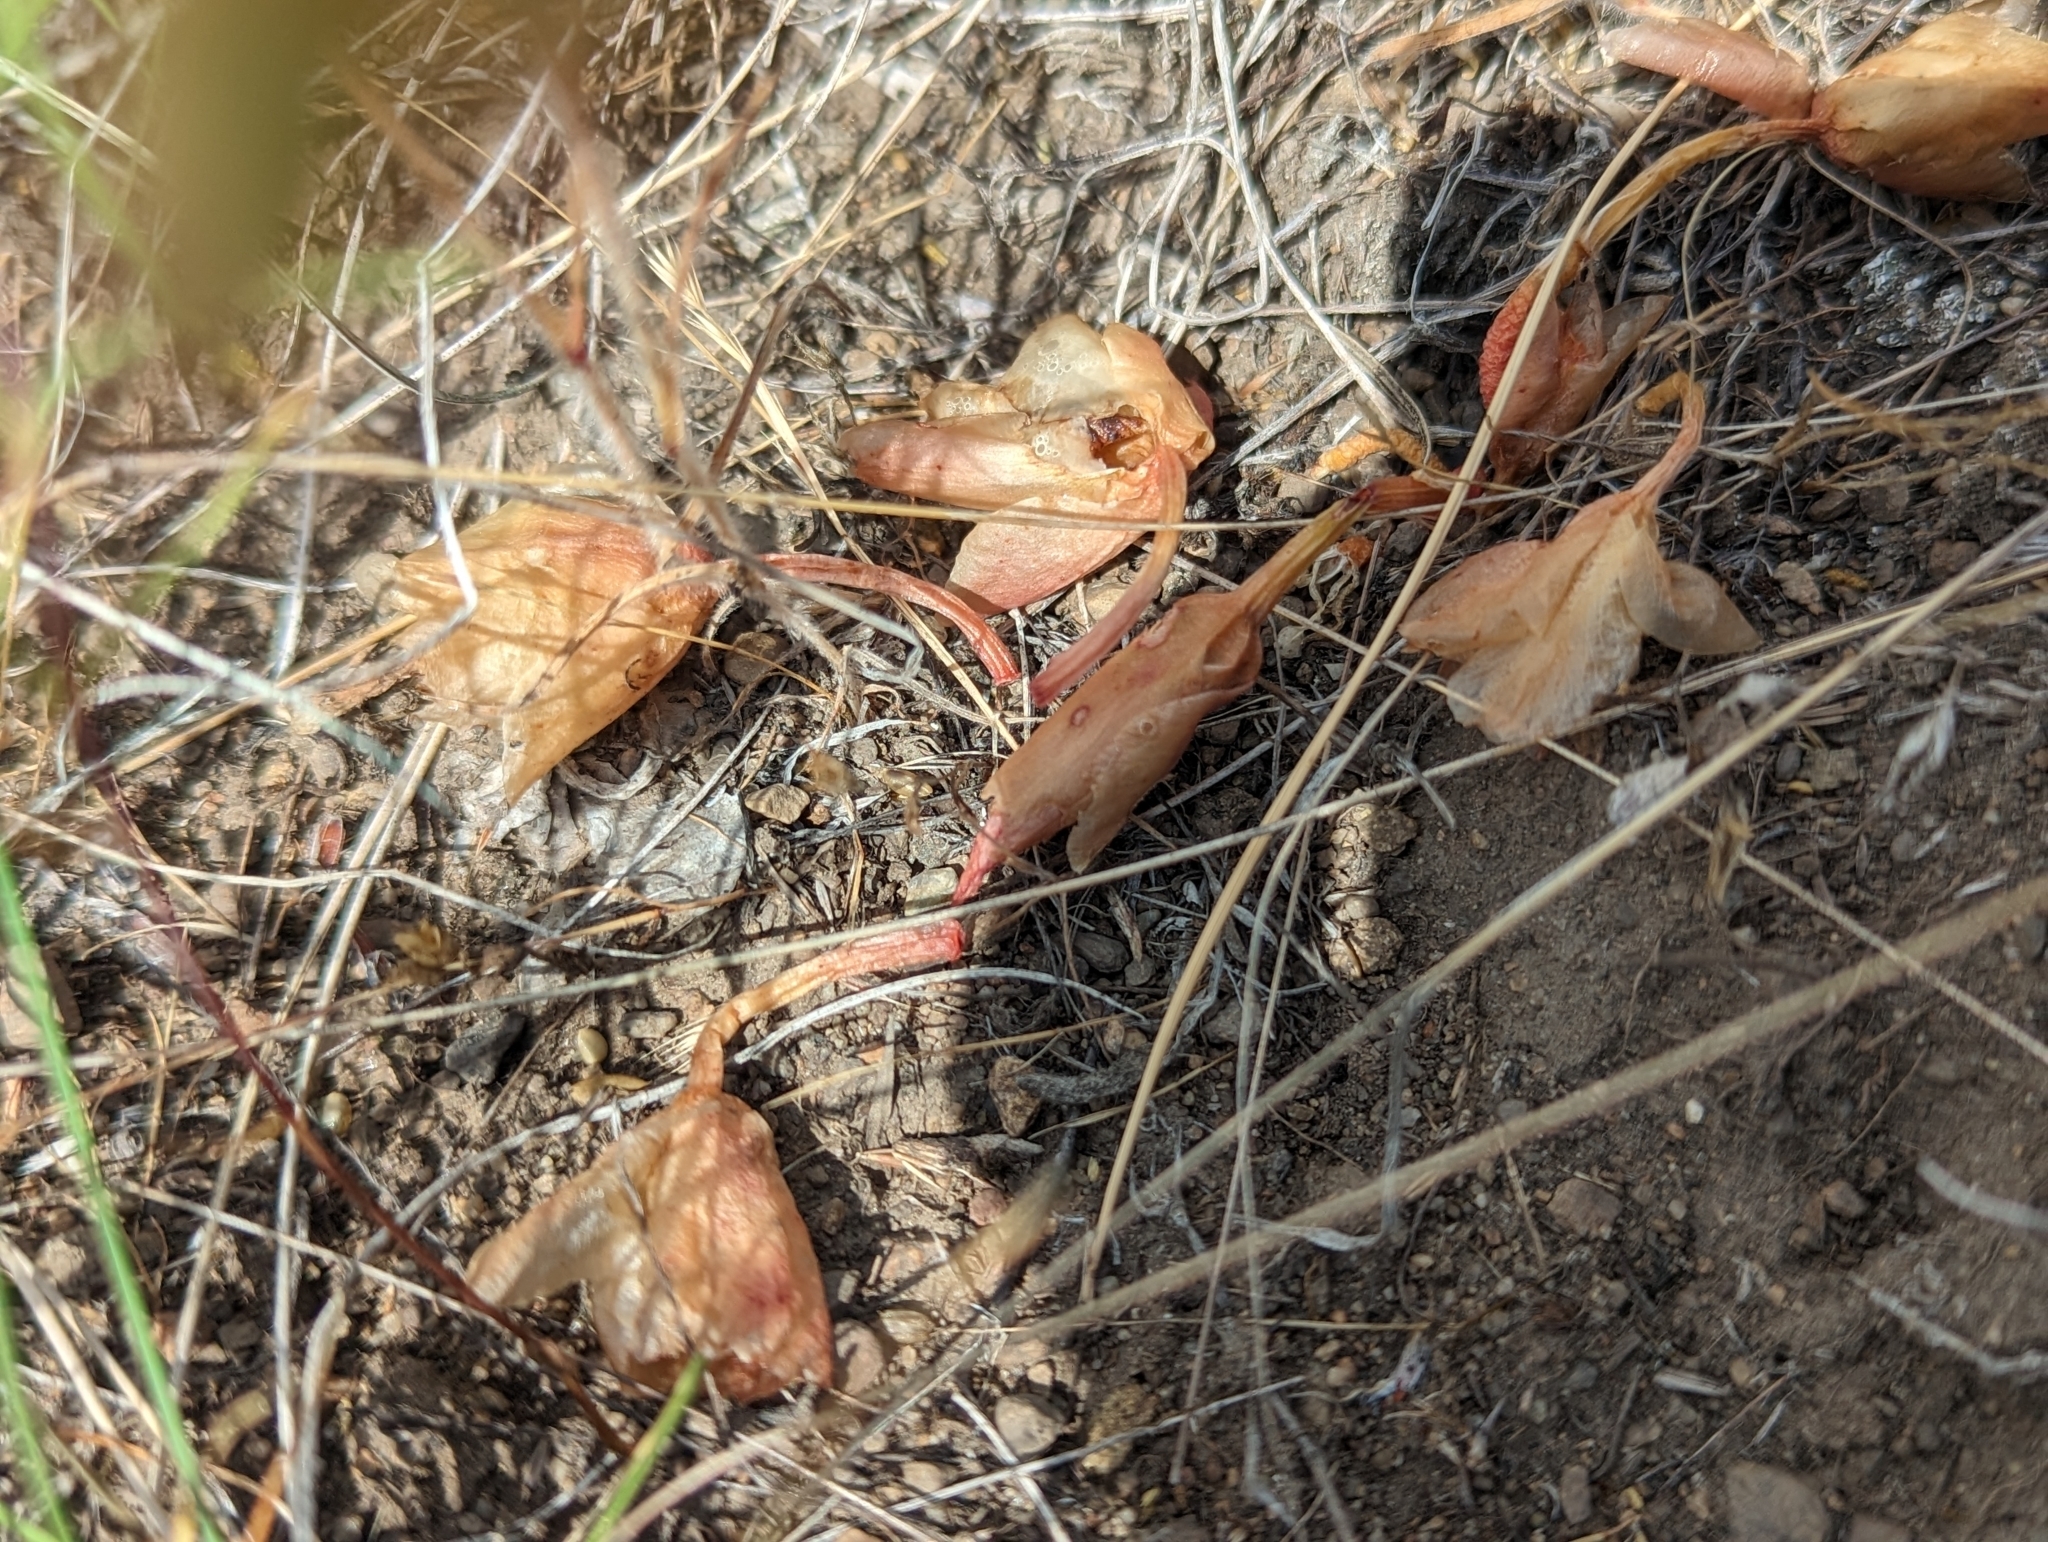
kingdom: Plantae
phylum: Tracheophyta
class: Magnoliopsida
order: Caryophyllales
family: Montiaceae
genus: Lewisia
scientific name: Lewisia rediviva
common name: Bitter-root
